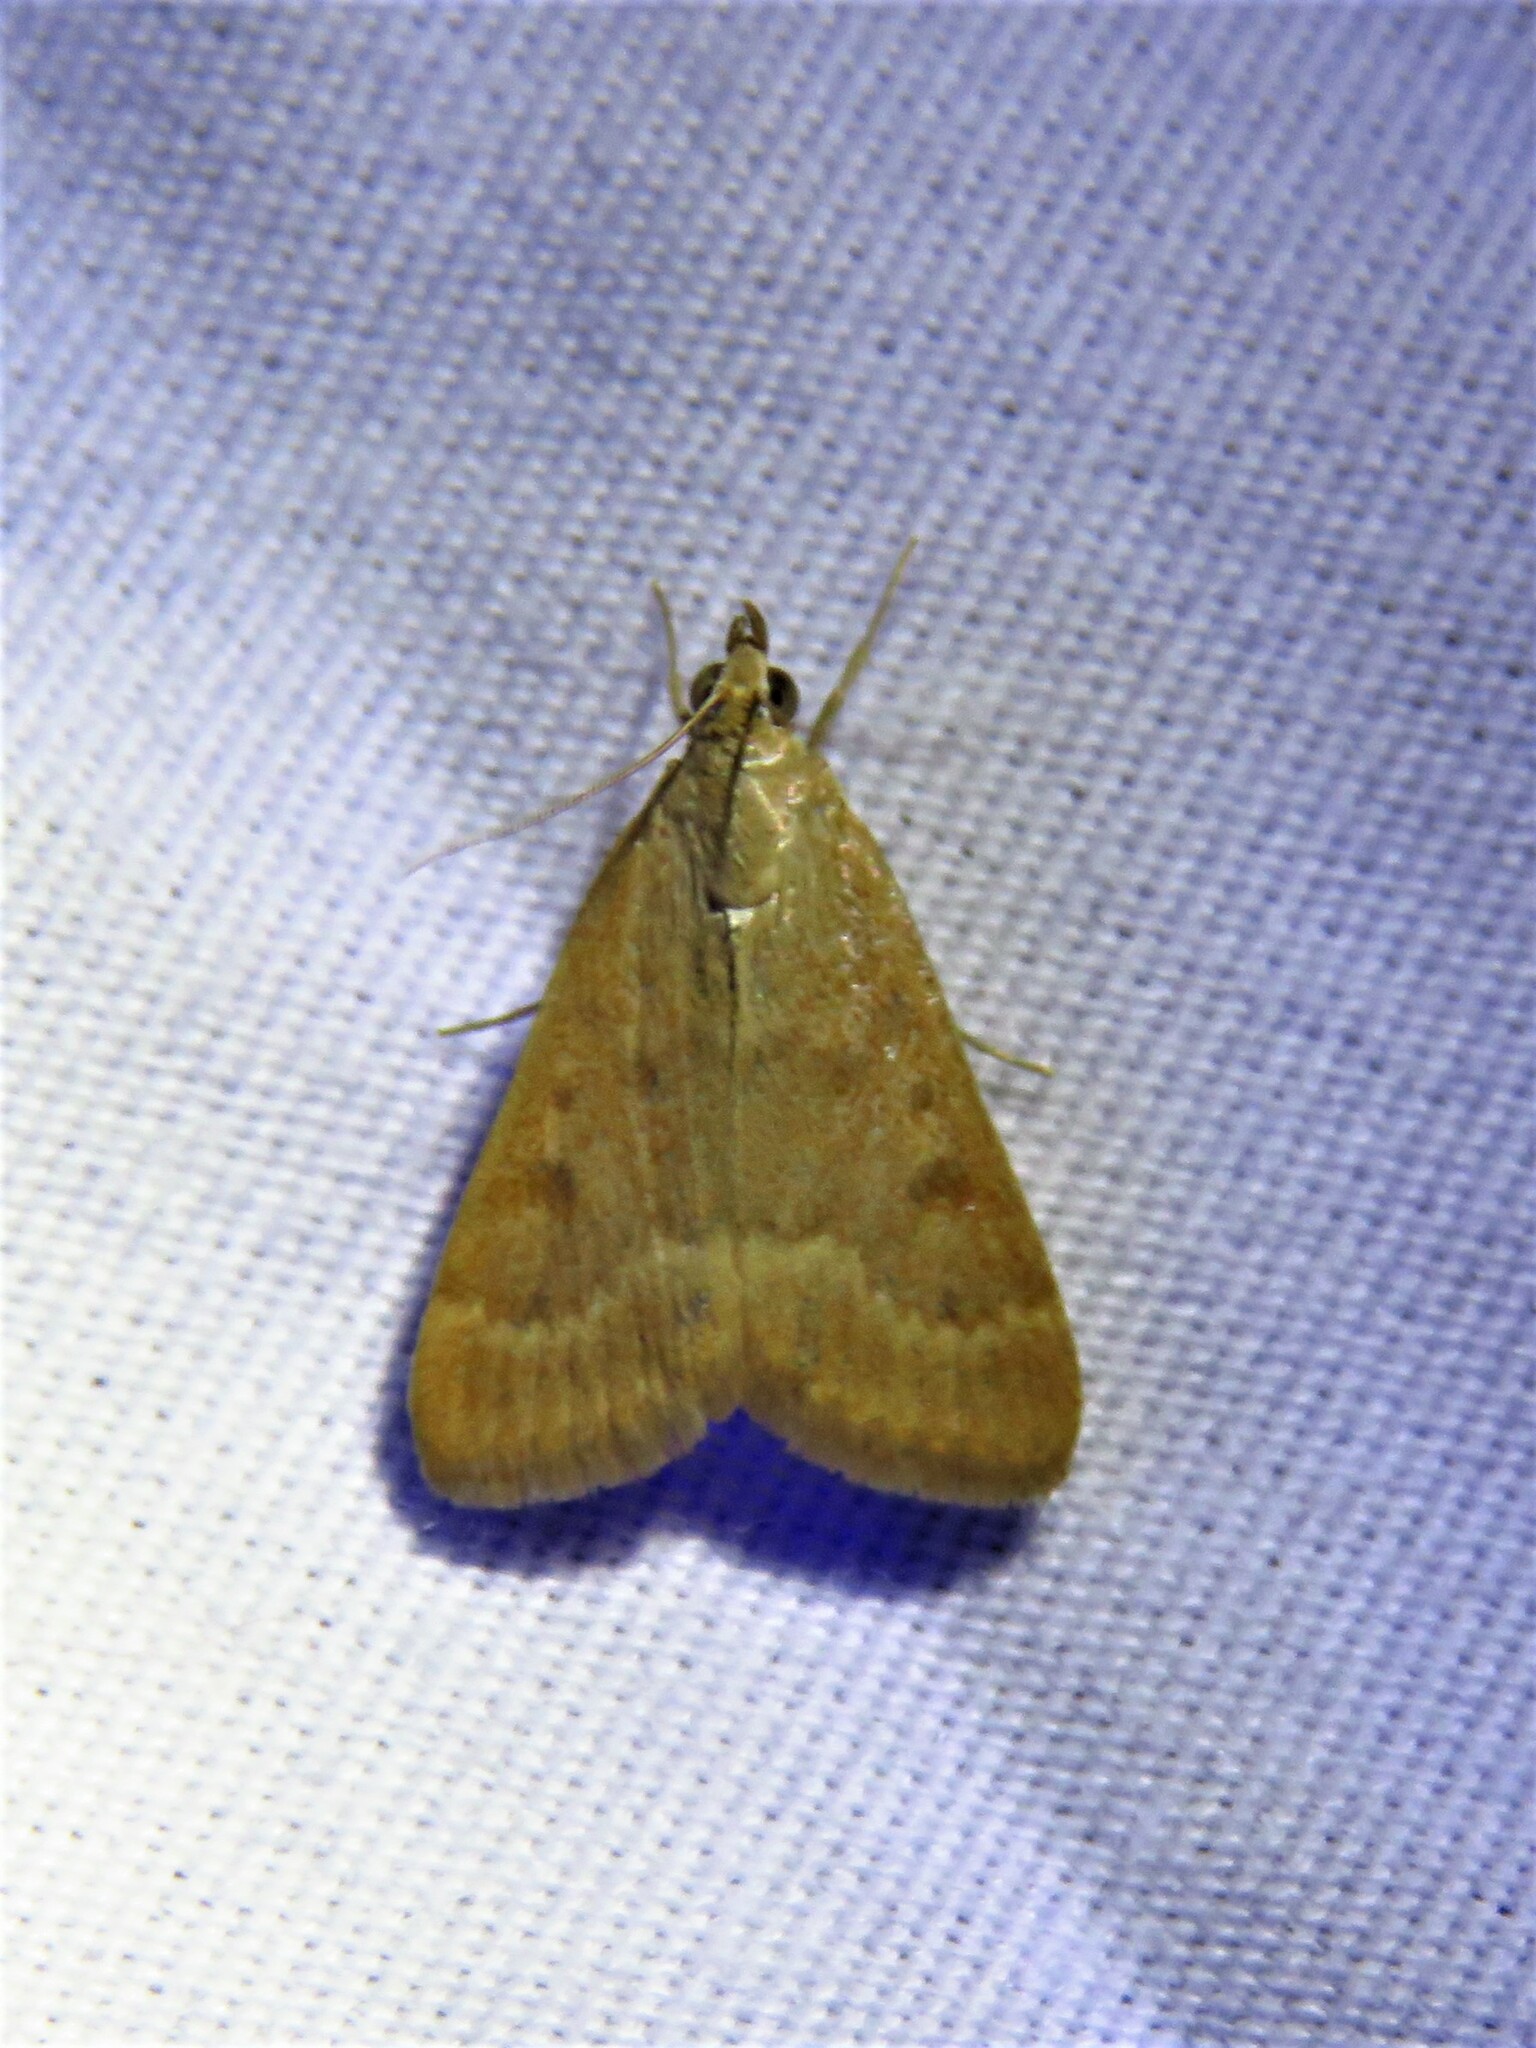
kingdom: Animalia
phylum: Arthropoda
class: Insecta
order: Lepidoptera
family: Crambidae
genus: Achyra
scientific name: Achyra rantalis
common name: Garden webworm
